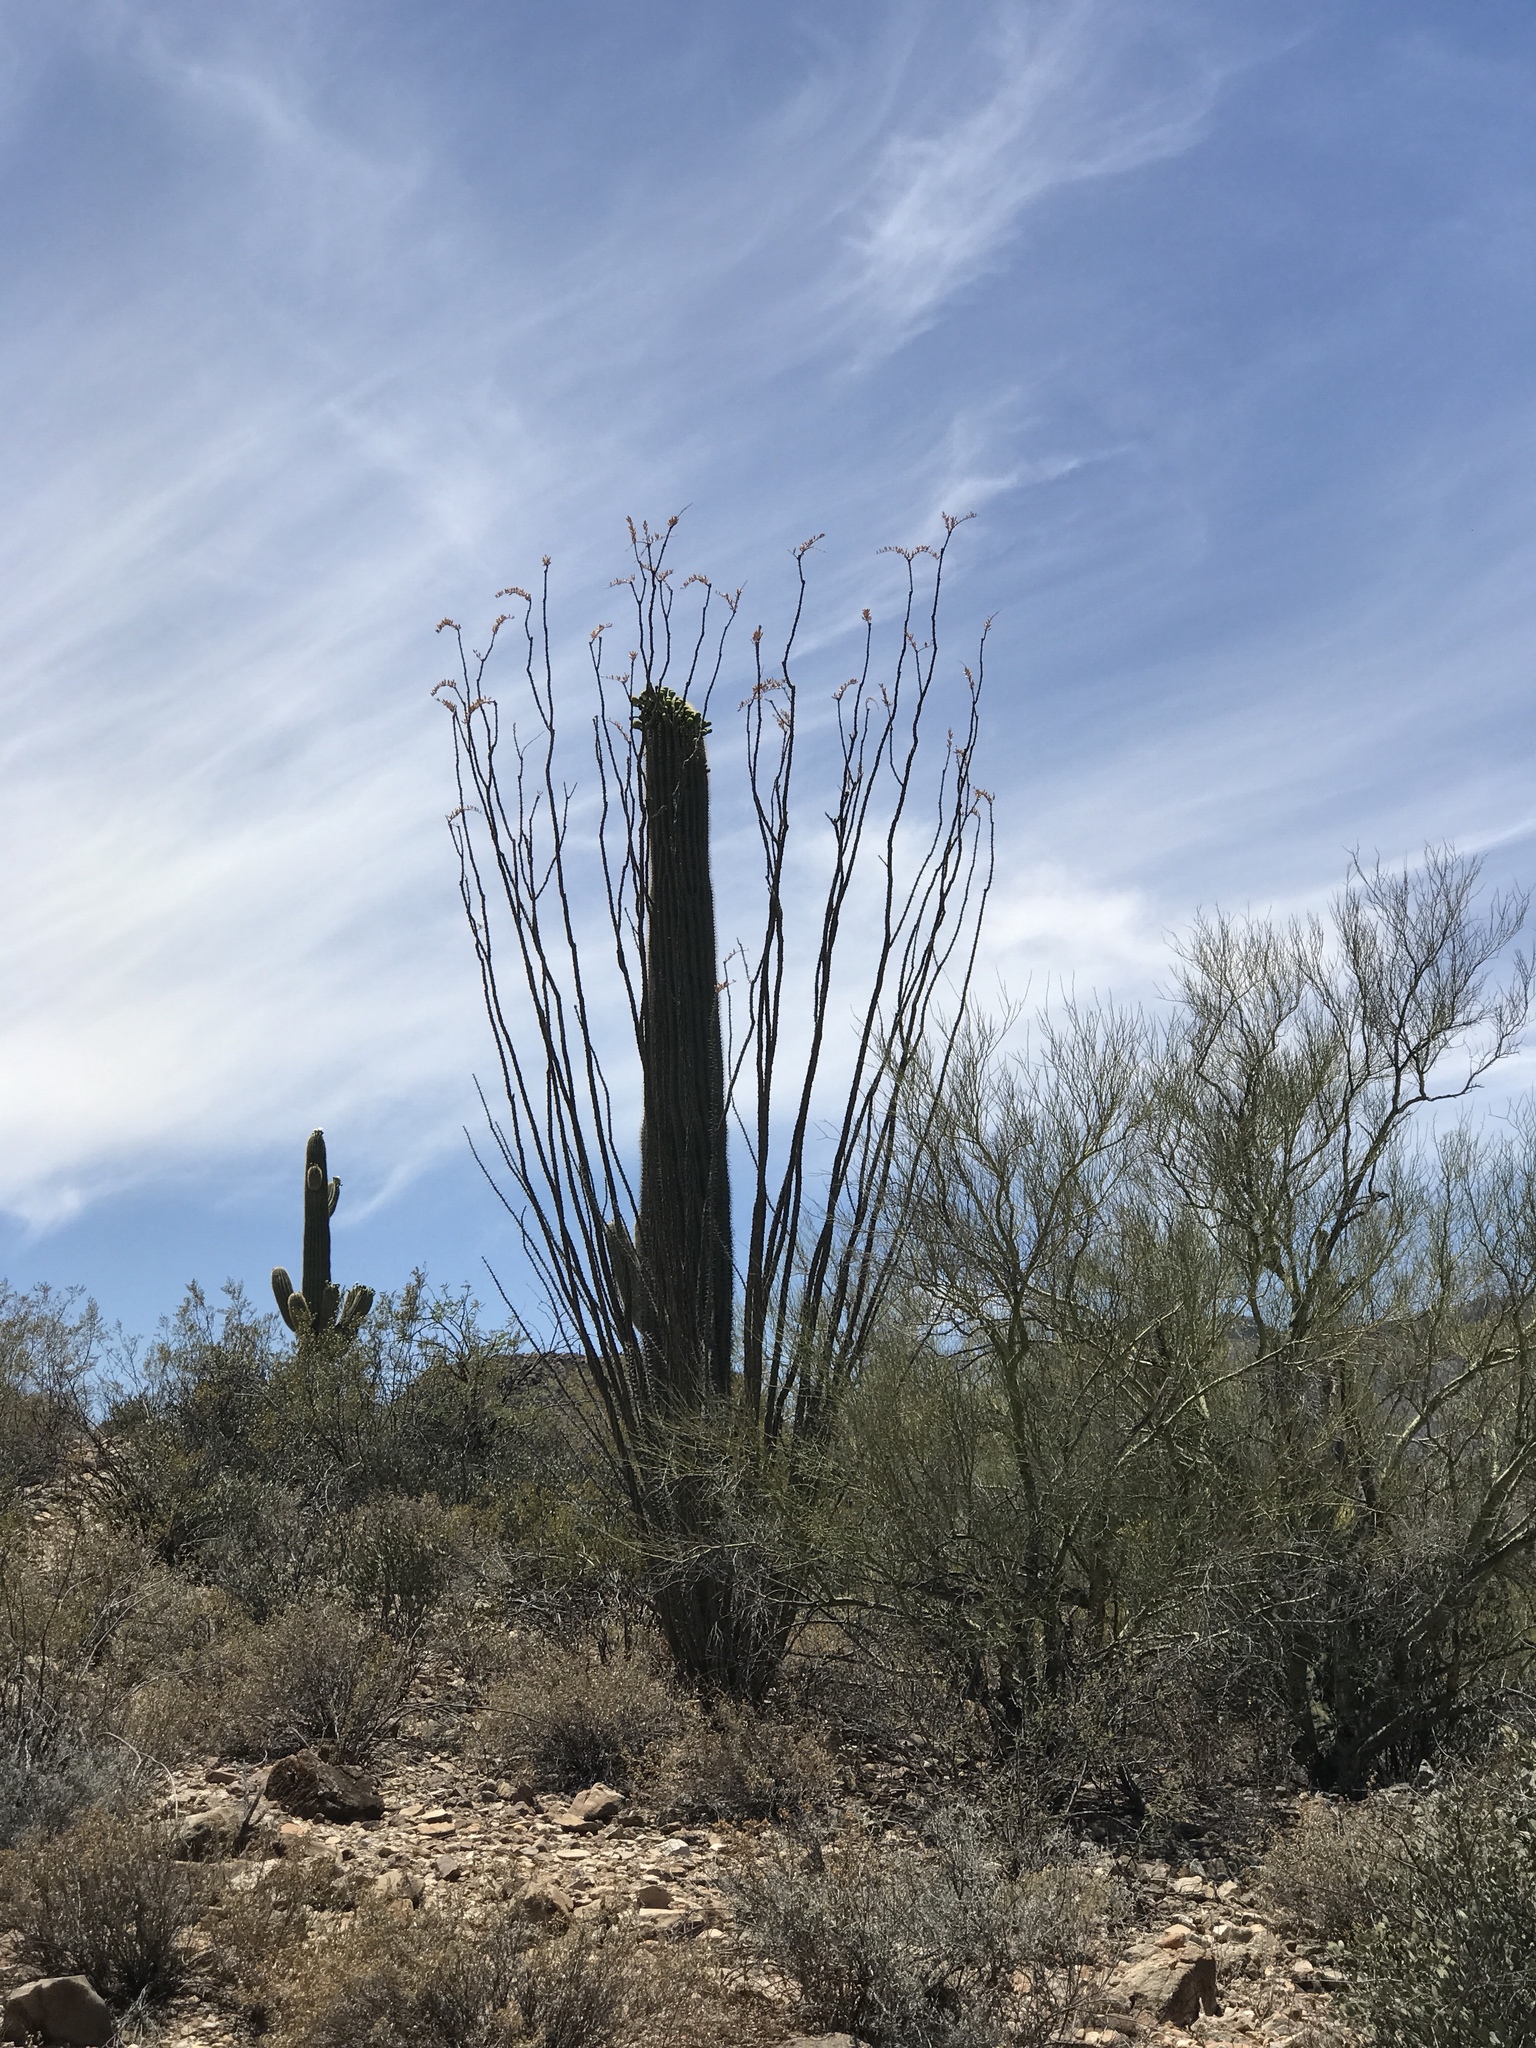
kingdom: Plantae
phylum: Tracheophyta
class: Magnoliopsida
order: Ericales
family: Fouquieriaceae
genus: Fouquieria
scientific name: Fouquieria splendens
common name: Vine-cactus
